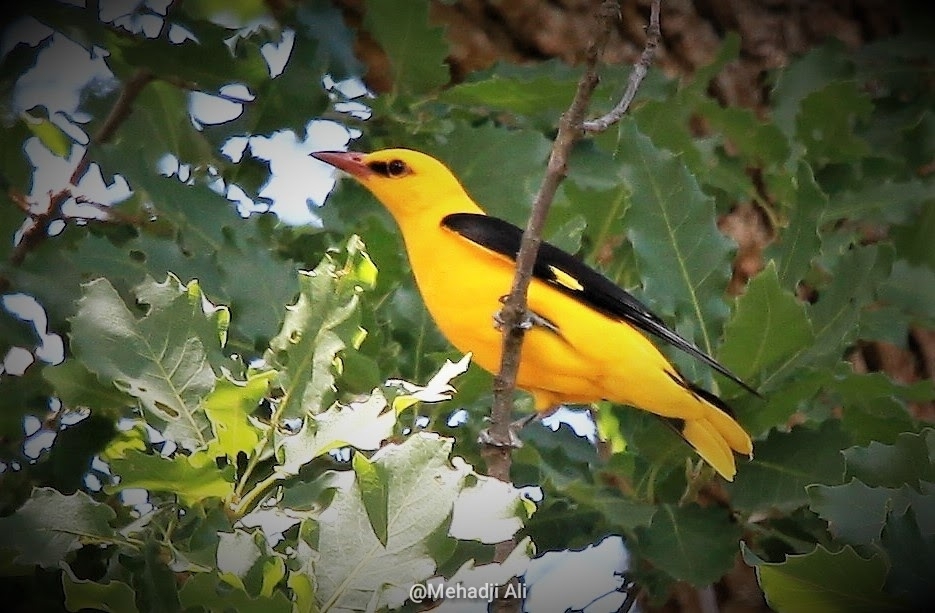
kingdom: Animalia
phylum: Chordata
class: Aves
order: Passeriformes
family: Oriolidae
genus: Oriolus
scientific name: Oriolus oriolus
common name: Eurasian golden oriole
